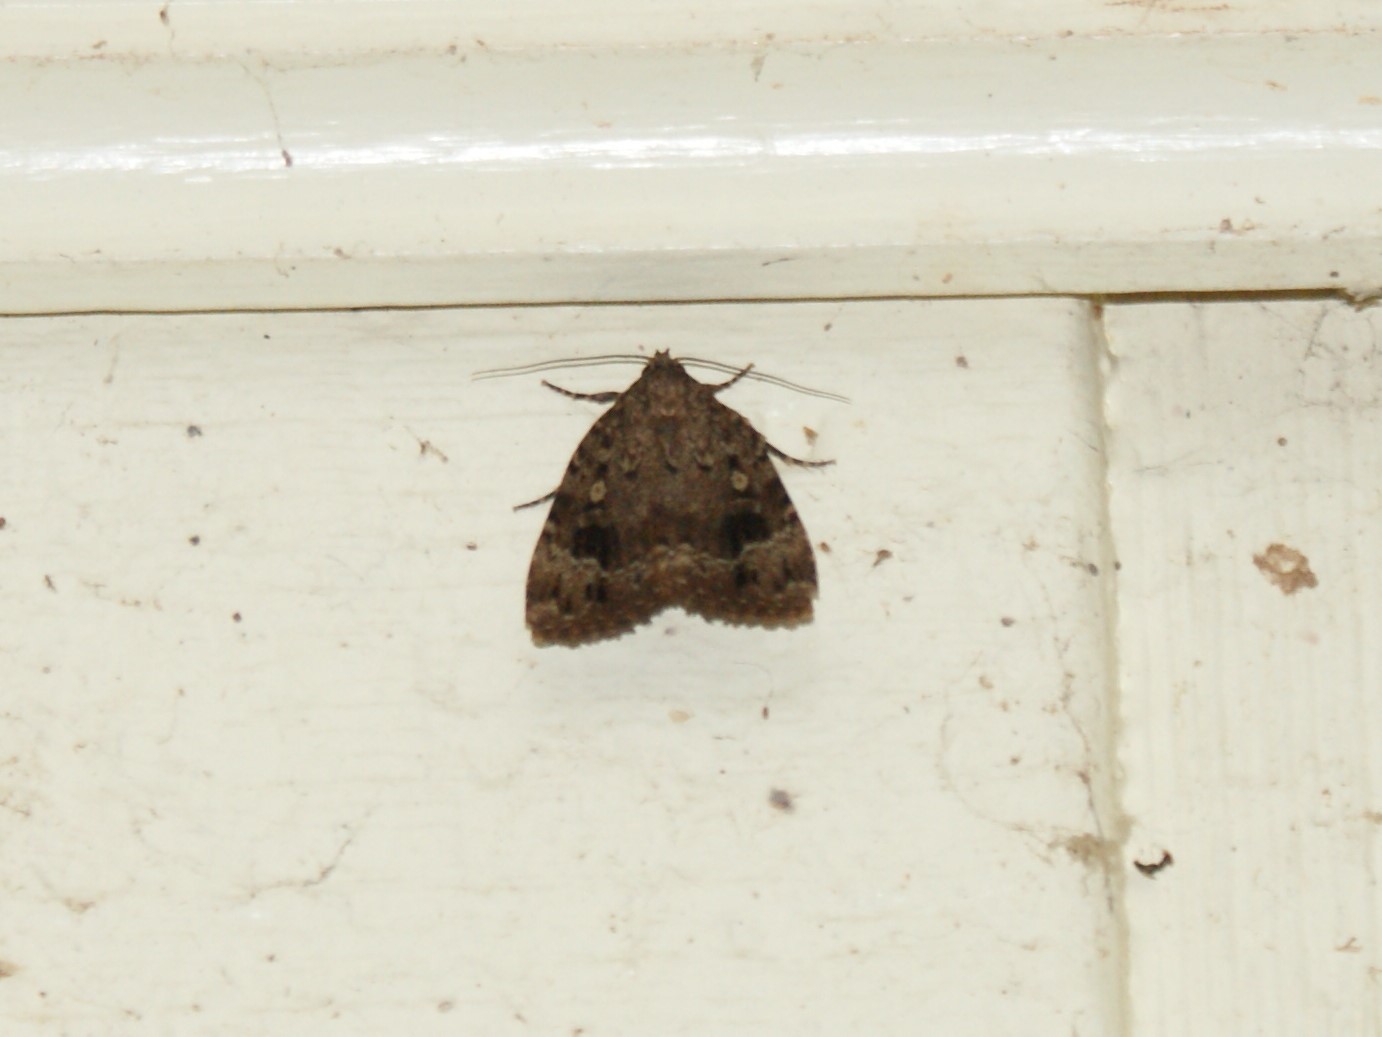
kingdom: Animalia
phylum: Arthropoda
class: Insecta
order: Lepidoptera
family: Noctuidae
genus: Amphipyra
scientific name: Amphipyra pyramidoides
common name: American copper underwing
